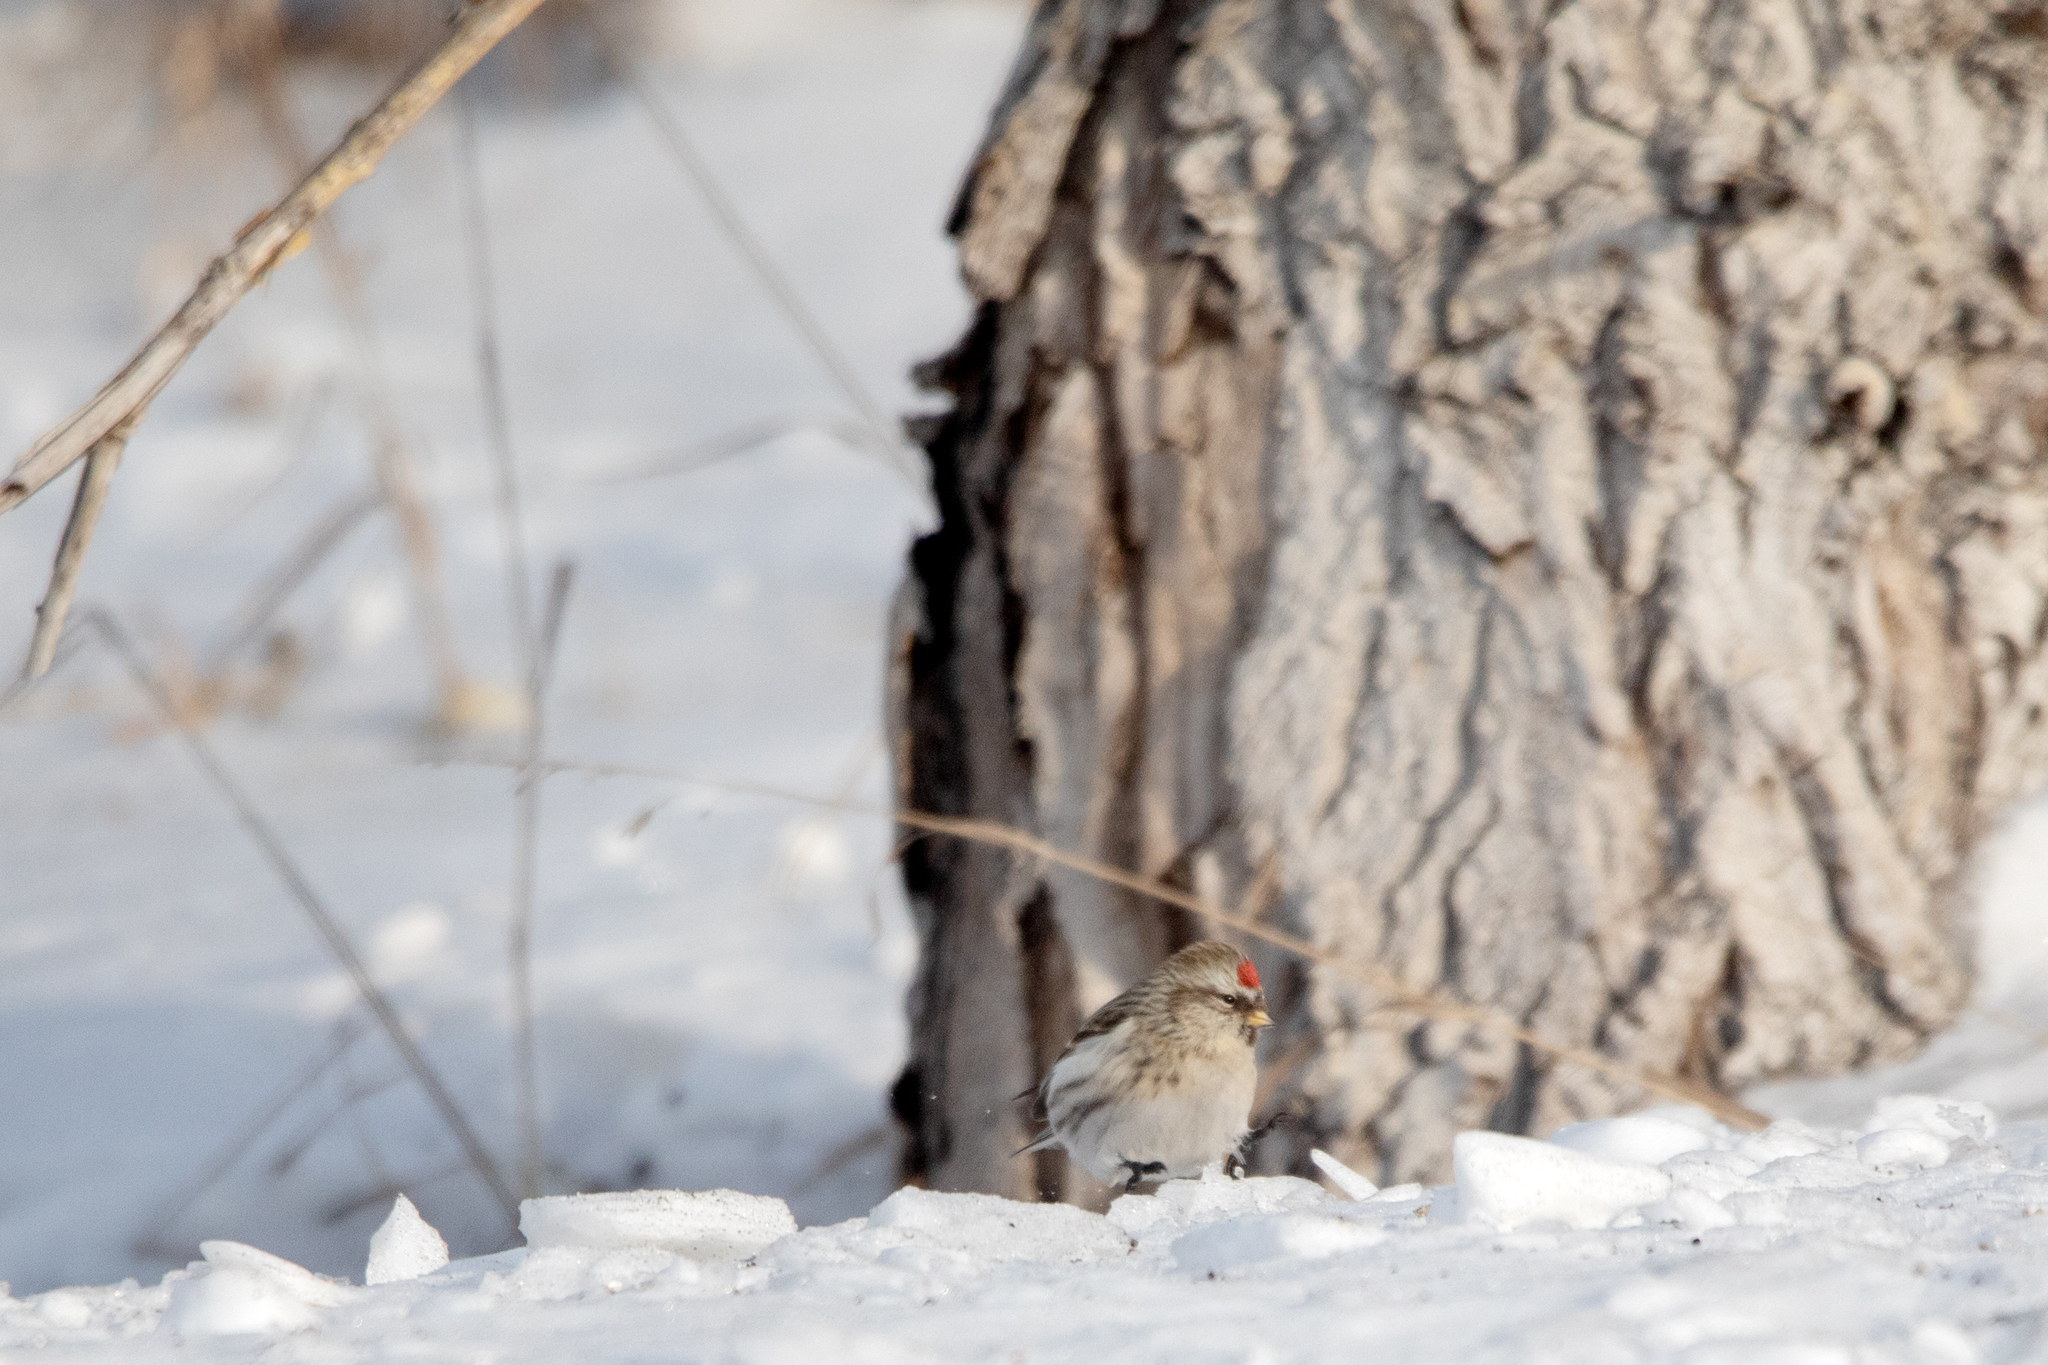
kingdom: Animalia
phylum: Chordata
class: Aves
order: Passeriformes
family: Fringillidae
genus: Acanthis
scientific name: Acanthis flammea
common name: Common redpoll
